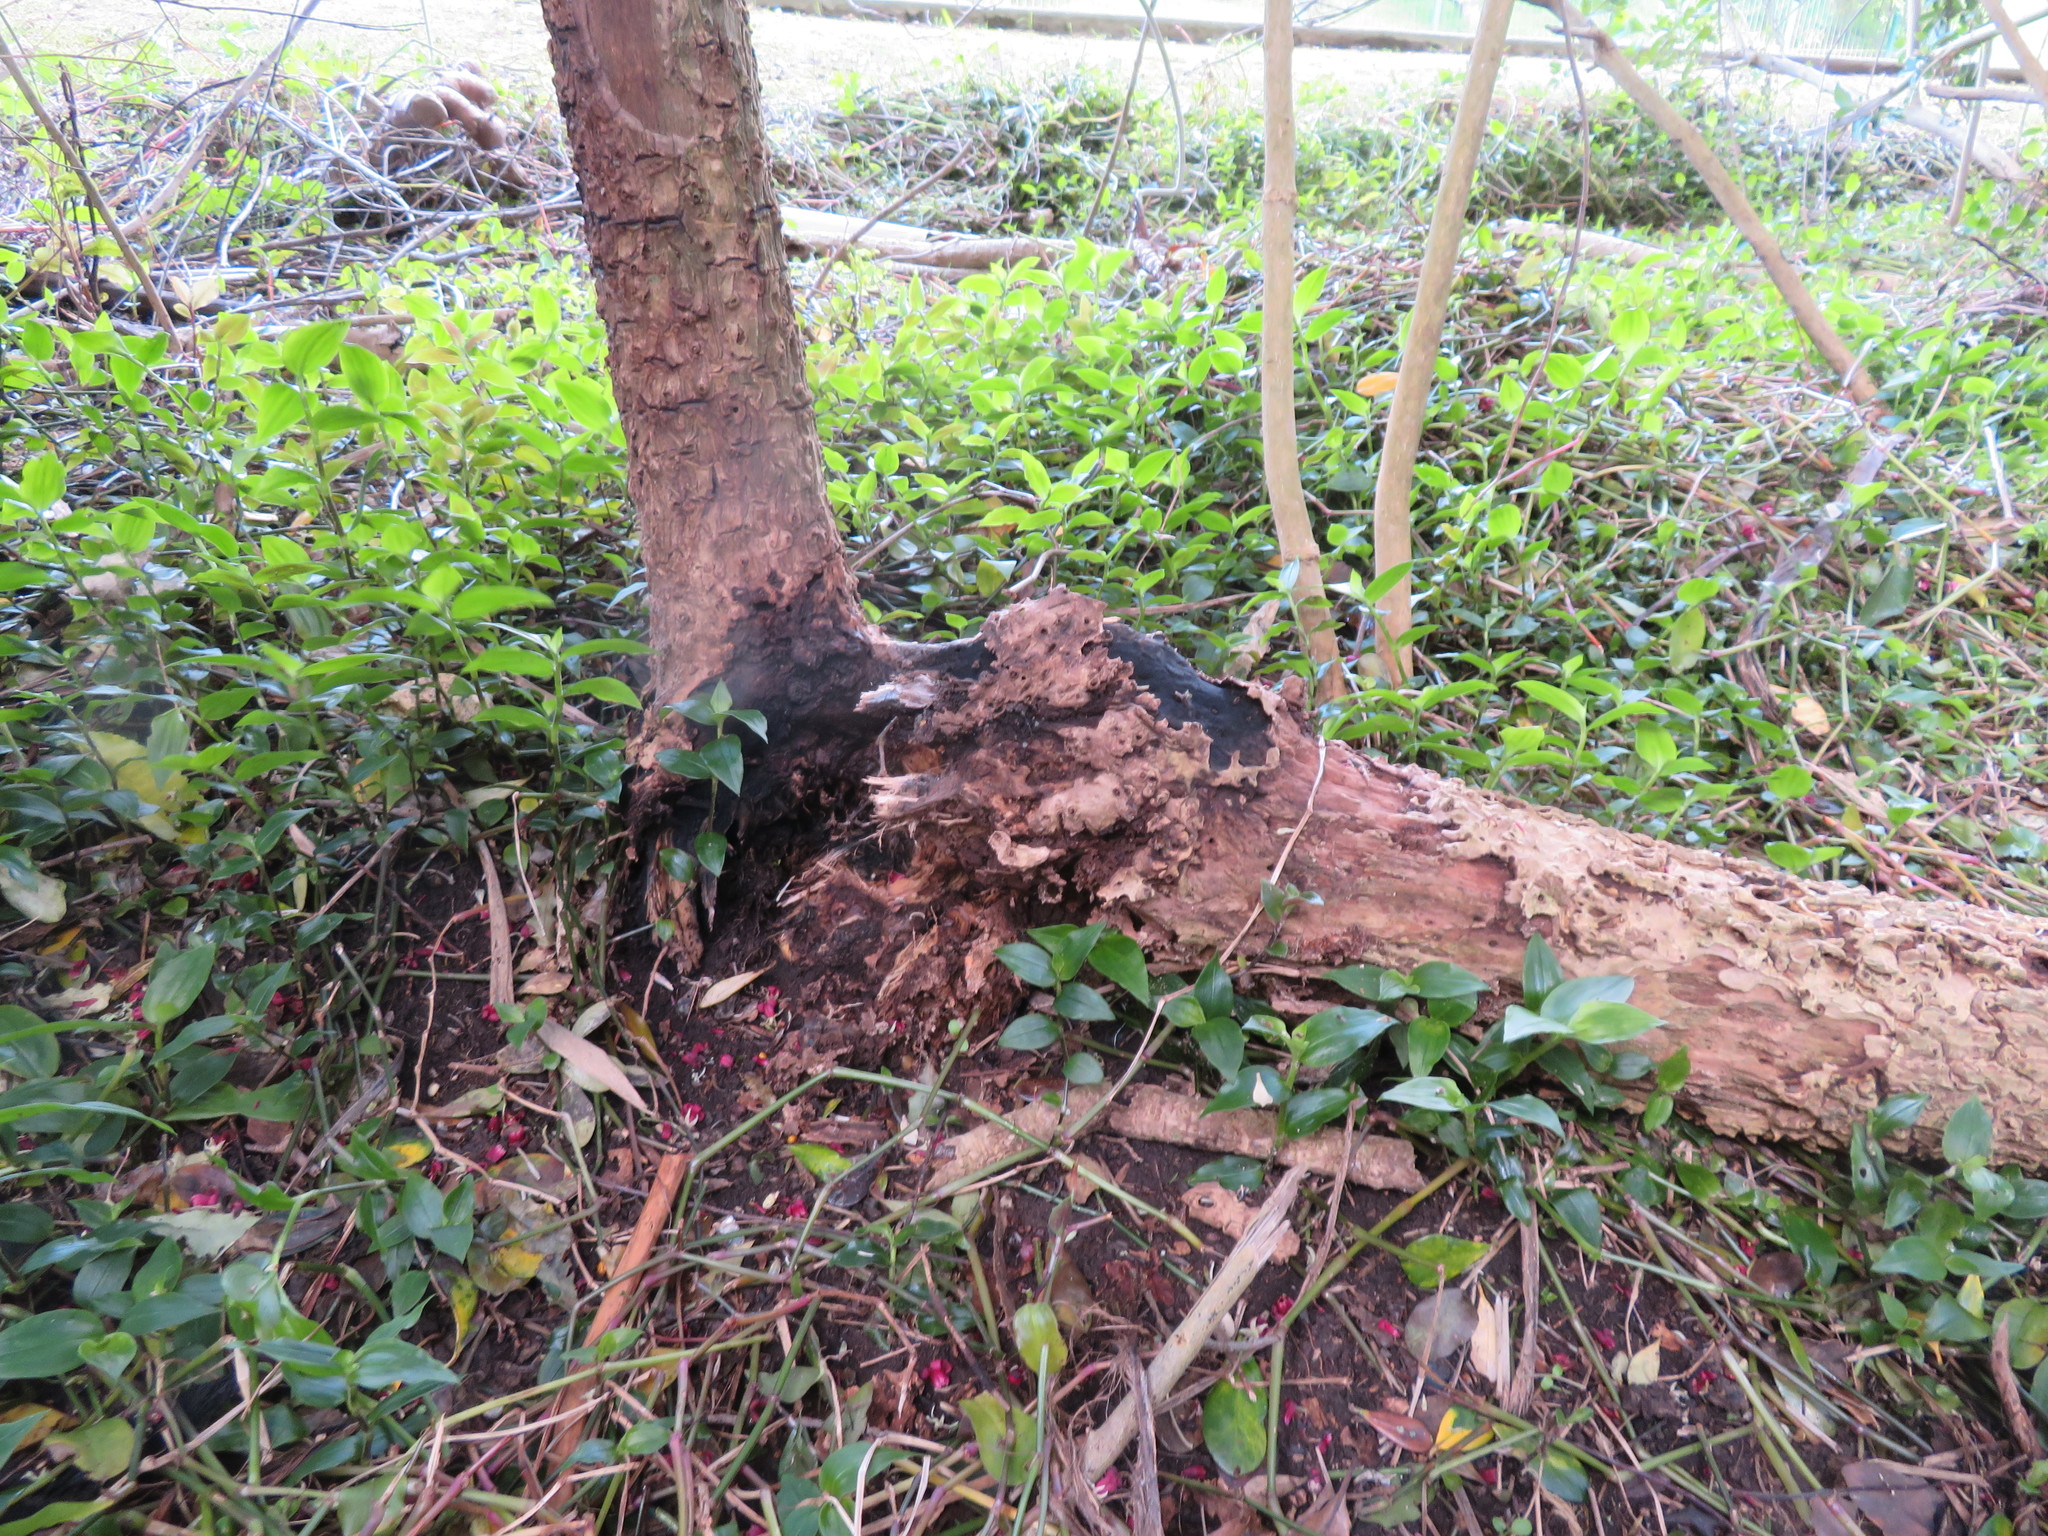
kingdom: Plantae
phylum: Tracheophyta
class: Liliopsida
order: Commelinales
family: Commelinaceae
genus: Tradescantia
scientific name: Tradescantia fluminensis
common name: Wandering-jew
